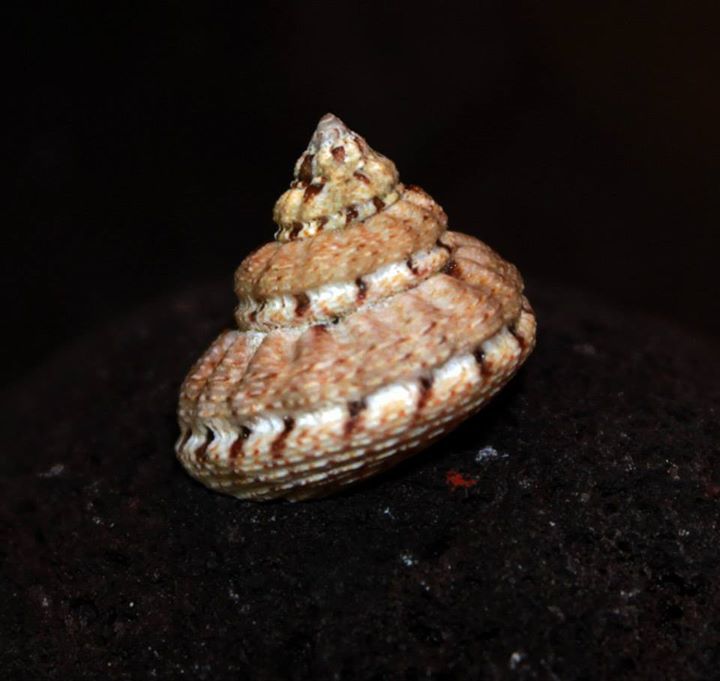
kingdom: Animalia
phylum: Mollusca
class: Gastropoda
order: Trochida
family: Trochidae
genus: Gibbula
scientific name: Gibbula fanulum
